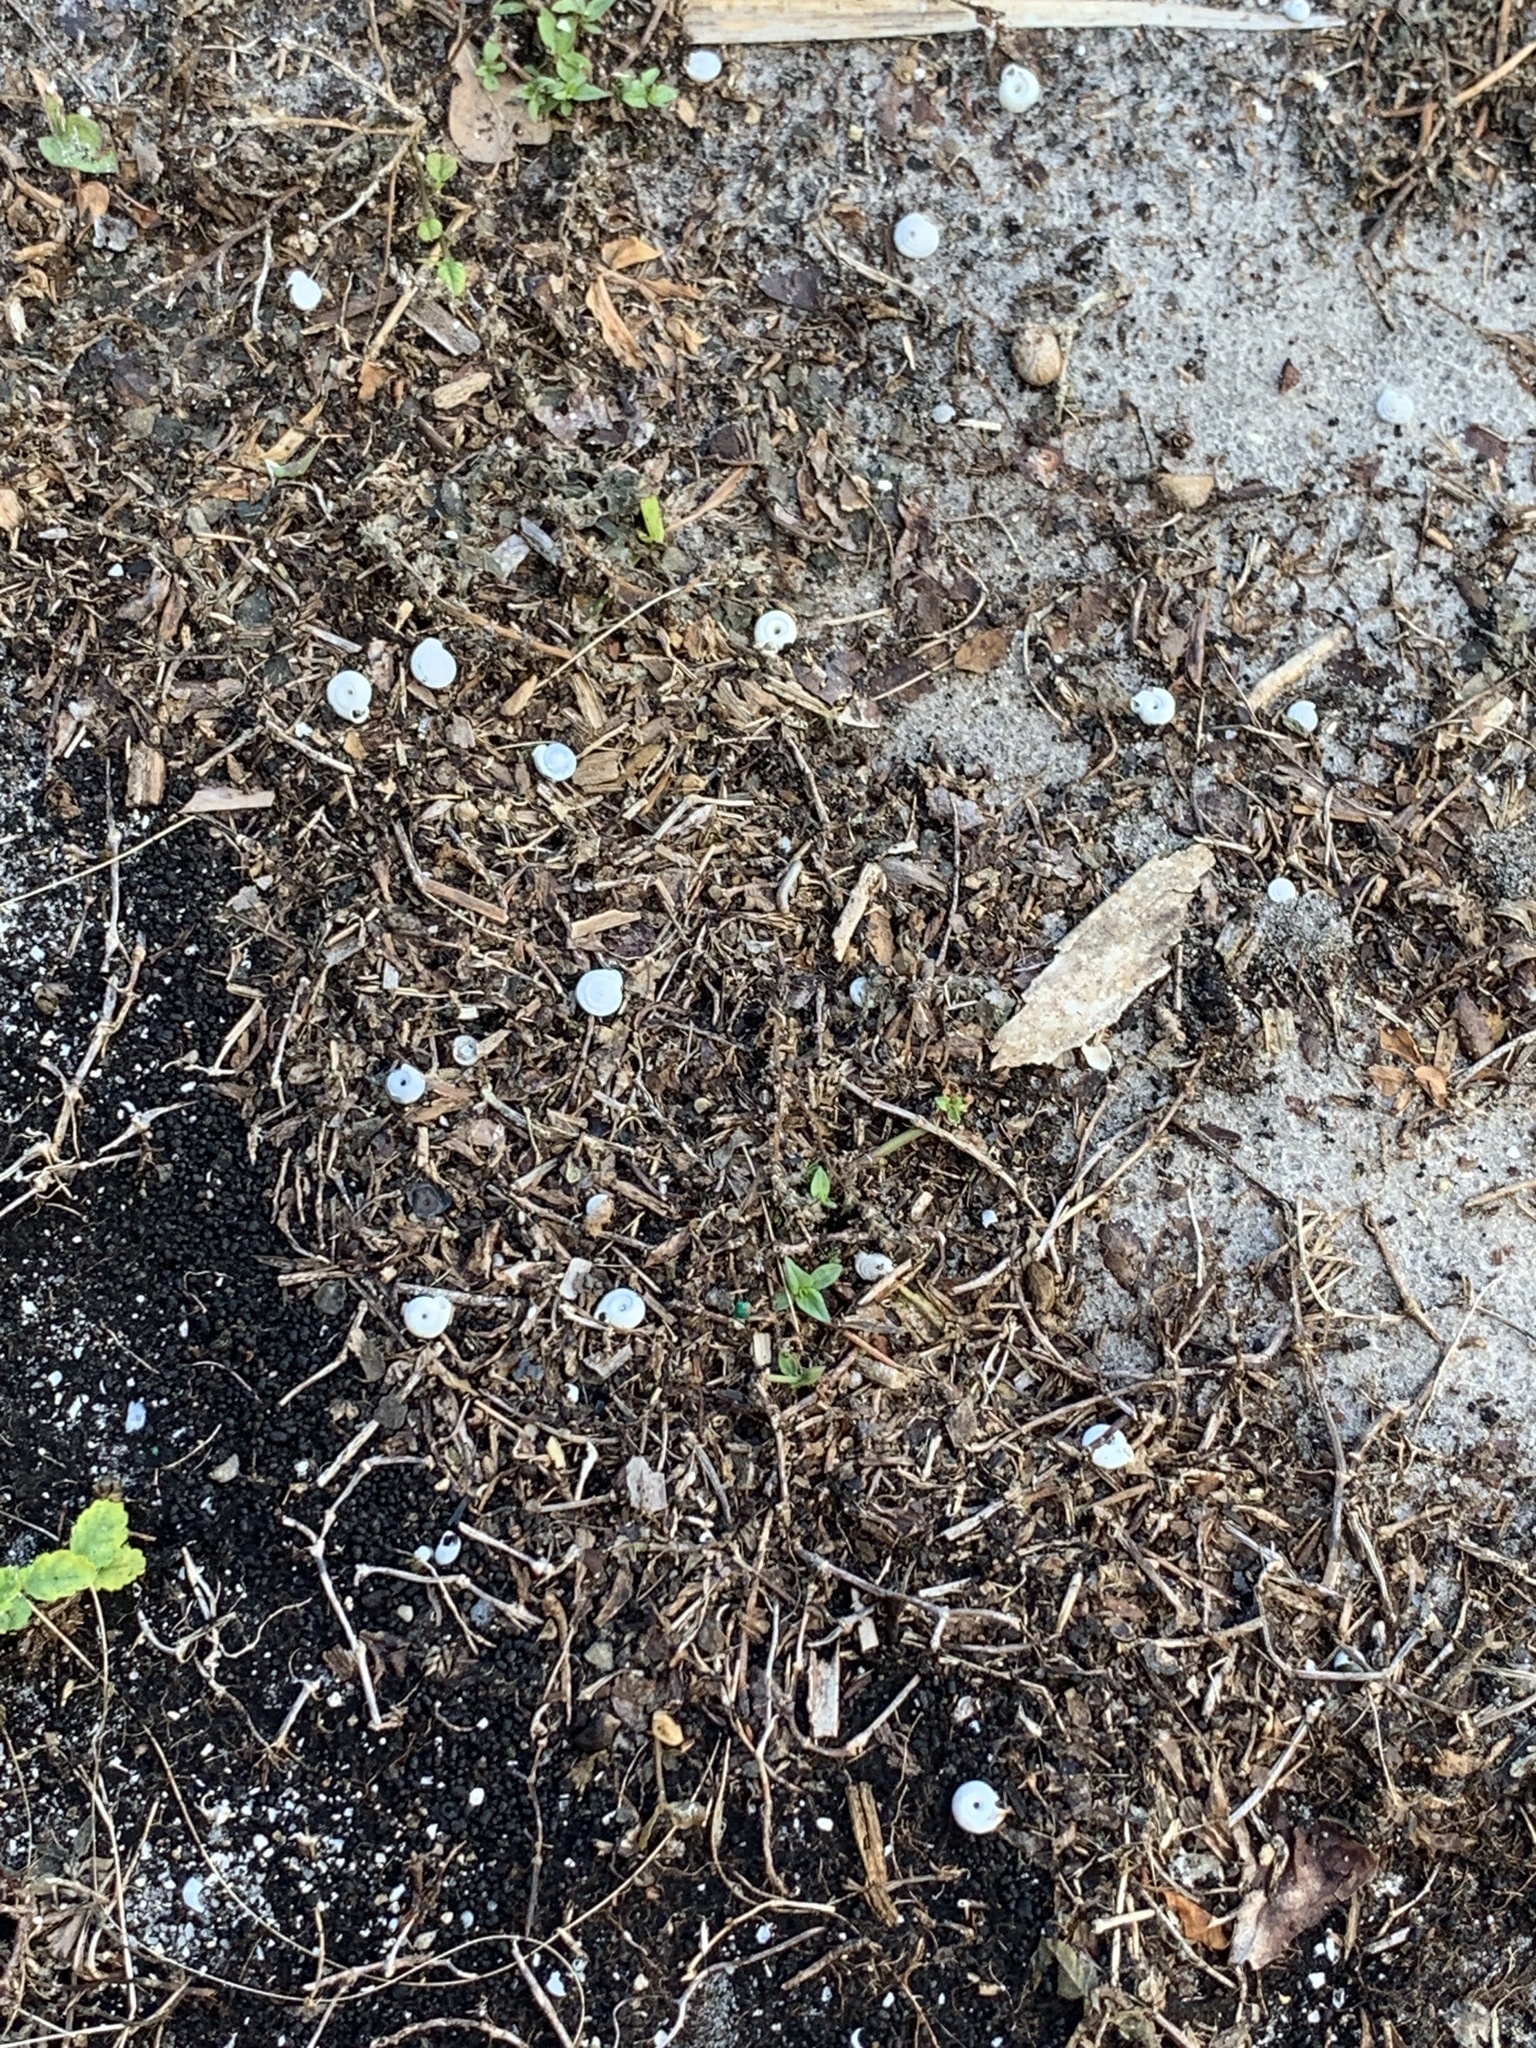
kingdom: Animalia
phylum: Mollusca
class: Gastropoda
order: Stylommatophora
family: Polygyridae
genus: Polygyra
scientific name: Polygyra cereolus
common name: Southern flatcone snail
